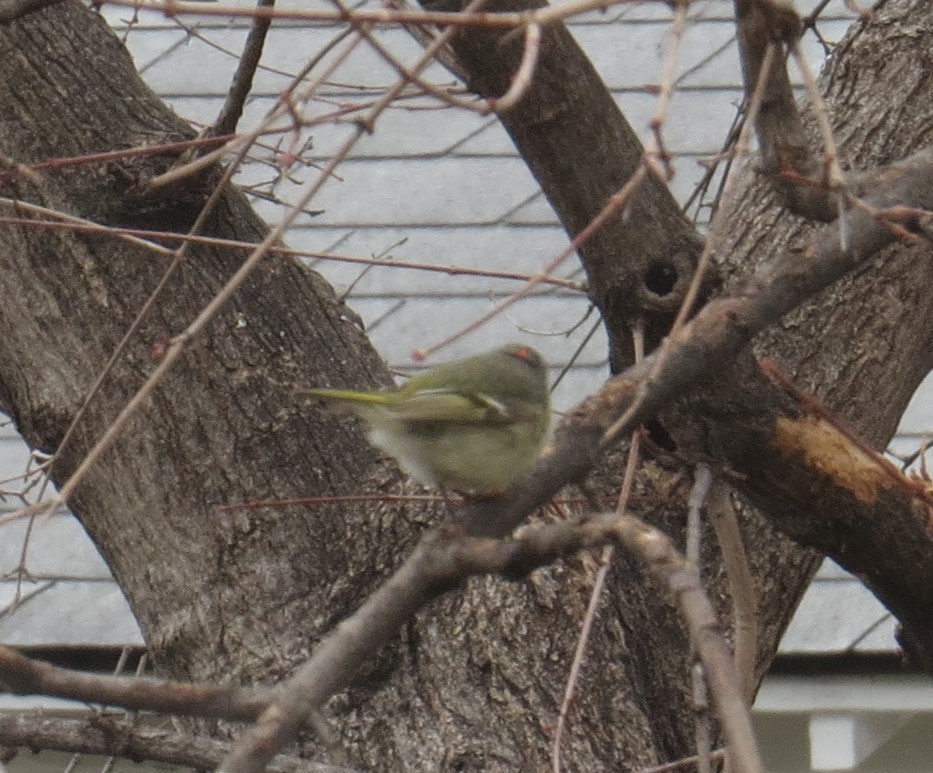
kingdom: Animalia
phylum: Chordata
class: Aves
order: Passeriformes
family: Regulidae
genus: Regulus
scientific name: Regulus calendula
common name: Ruby-crowned kinglet
